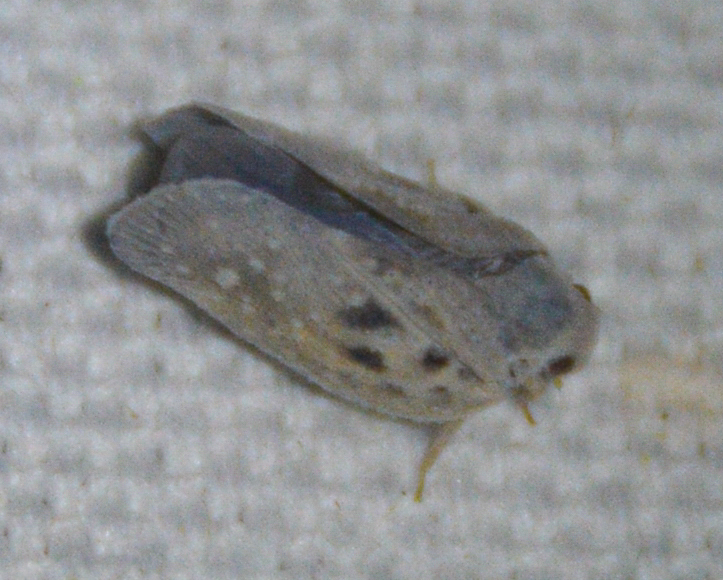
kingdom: Animalia
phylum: Arthropoda
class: Insecta
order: Hemiptera
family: Flatidae
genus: Metcalfa
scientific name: Metcalfa pruinosa
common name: Citrus flatid planthopper
